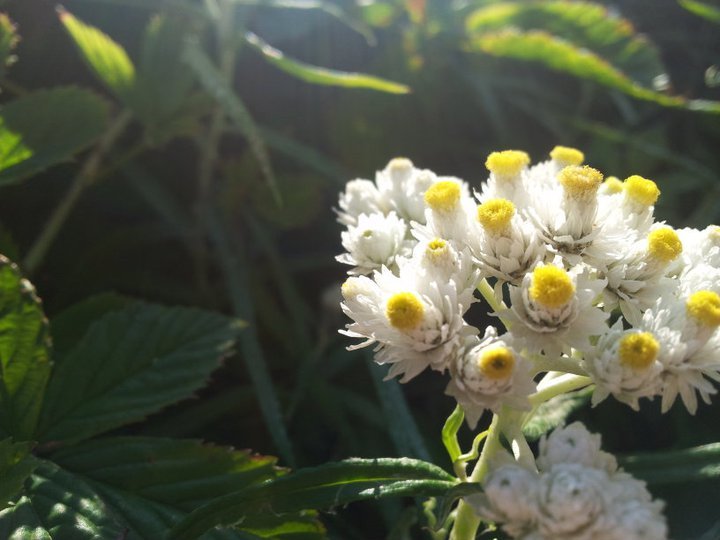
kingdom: Plantae
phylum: Tracheophyta
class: Magnoliopsida
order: Asterales
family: Asteraceae
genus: Anaphalis
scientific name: Anaphalis margaritacea
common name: Pearly everlasting
